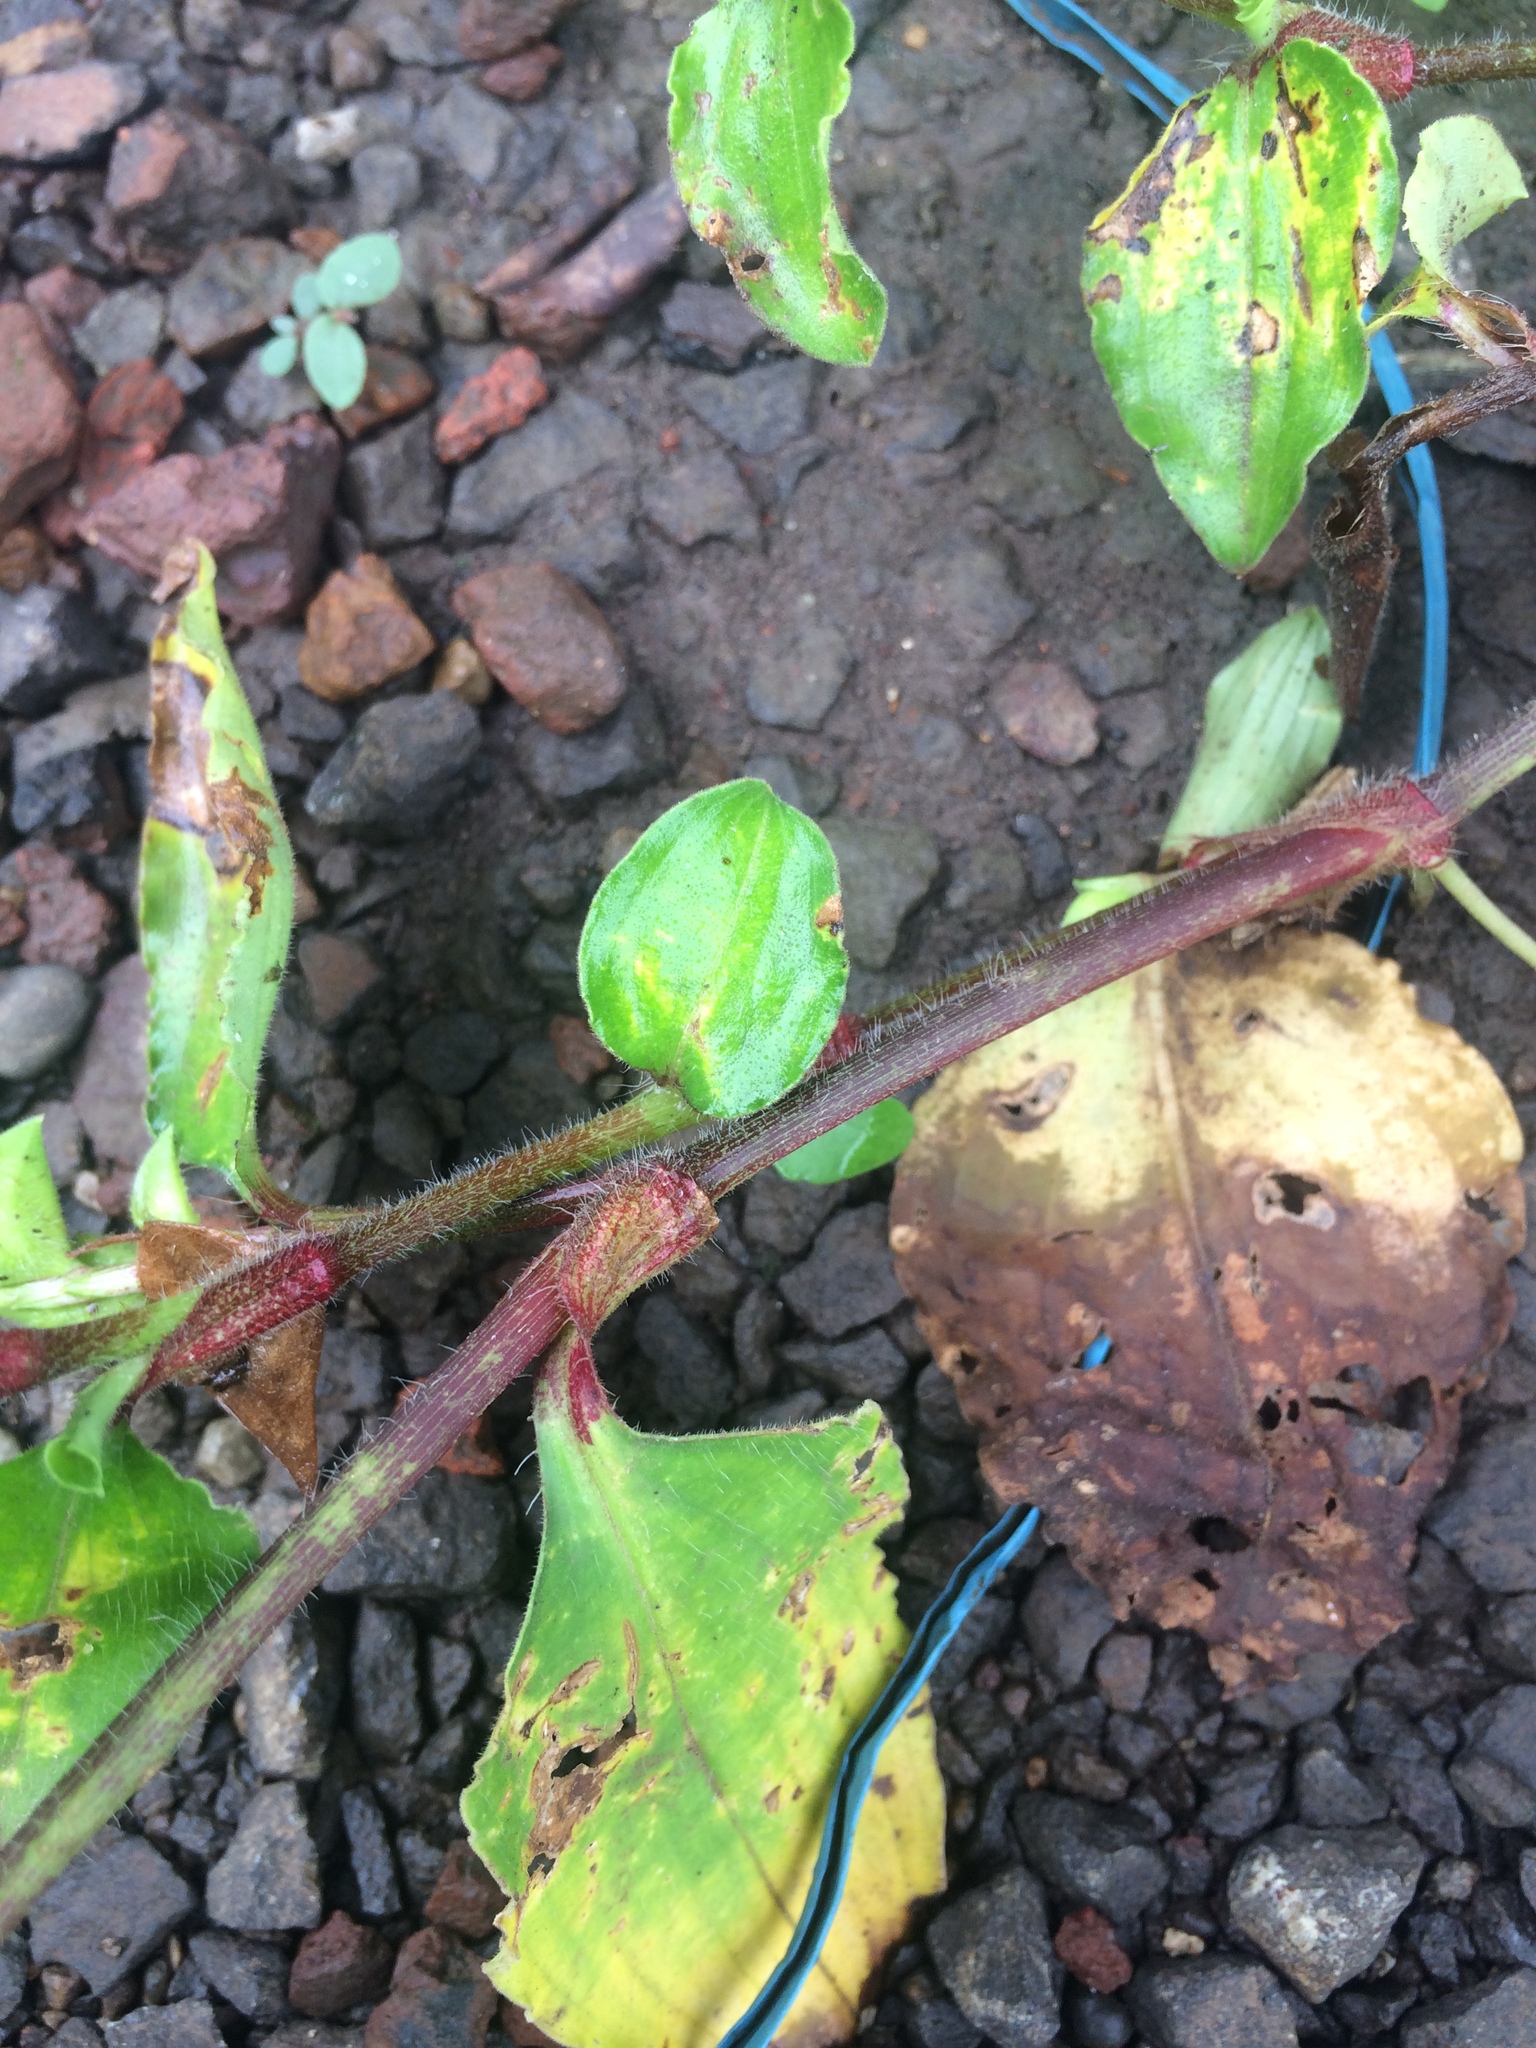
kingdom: Plantae
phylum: Tracheophyta
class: Liliopsida
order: Commelinales
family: Commelinaceae
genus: Commelina
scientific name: Commelina benghalensis
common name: Jio
